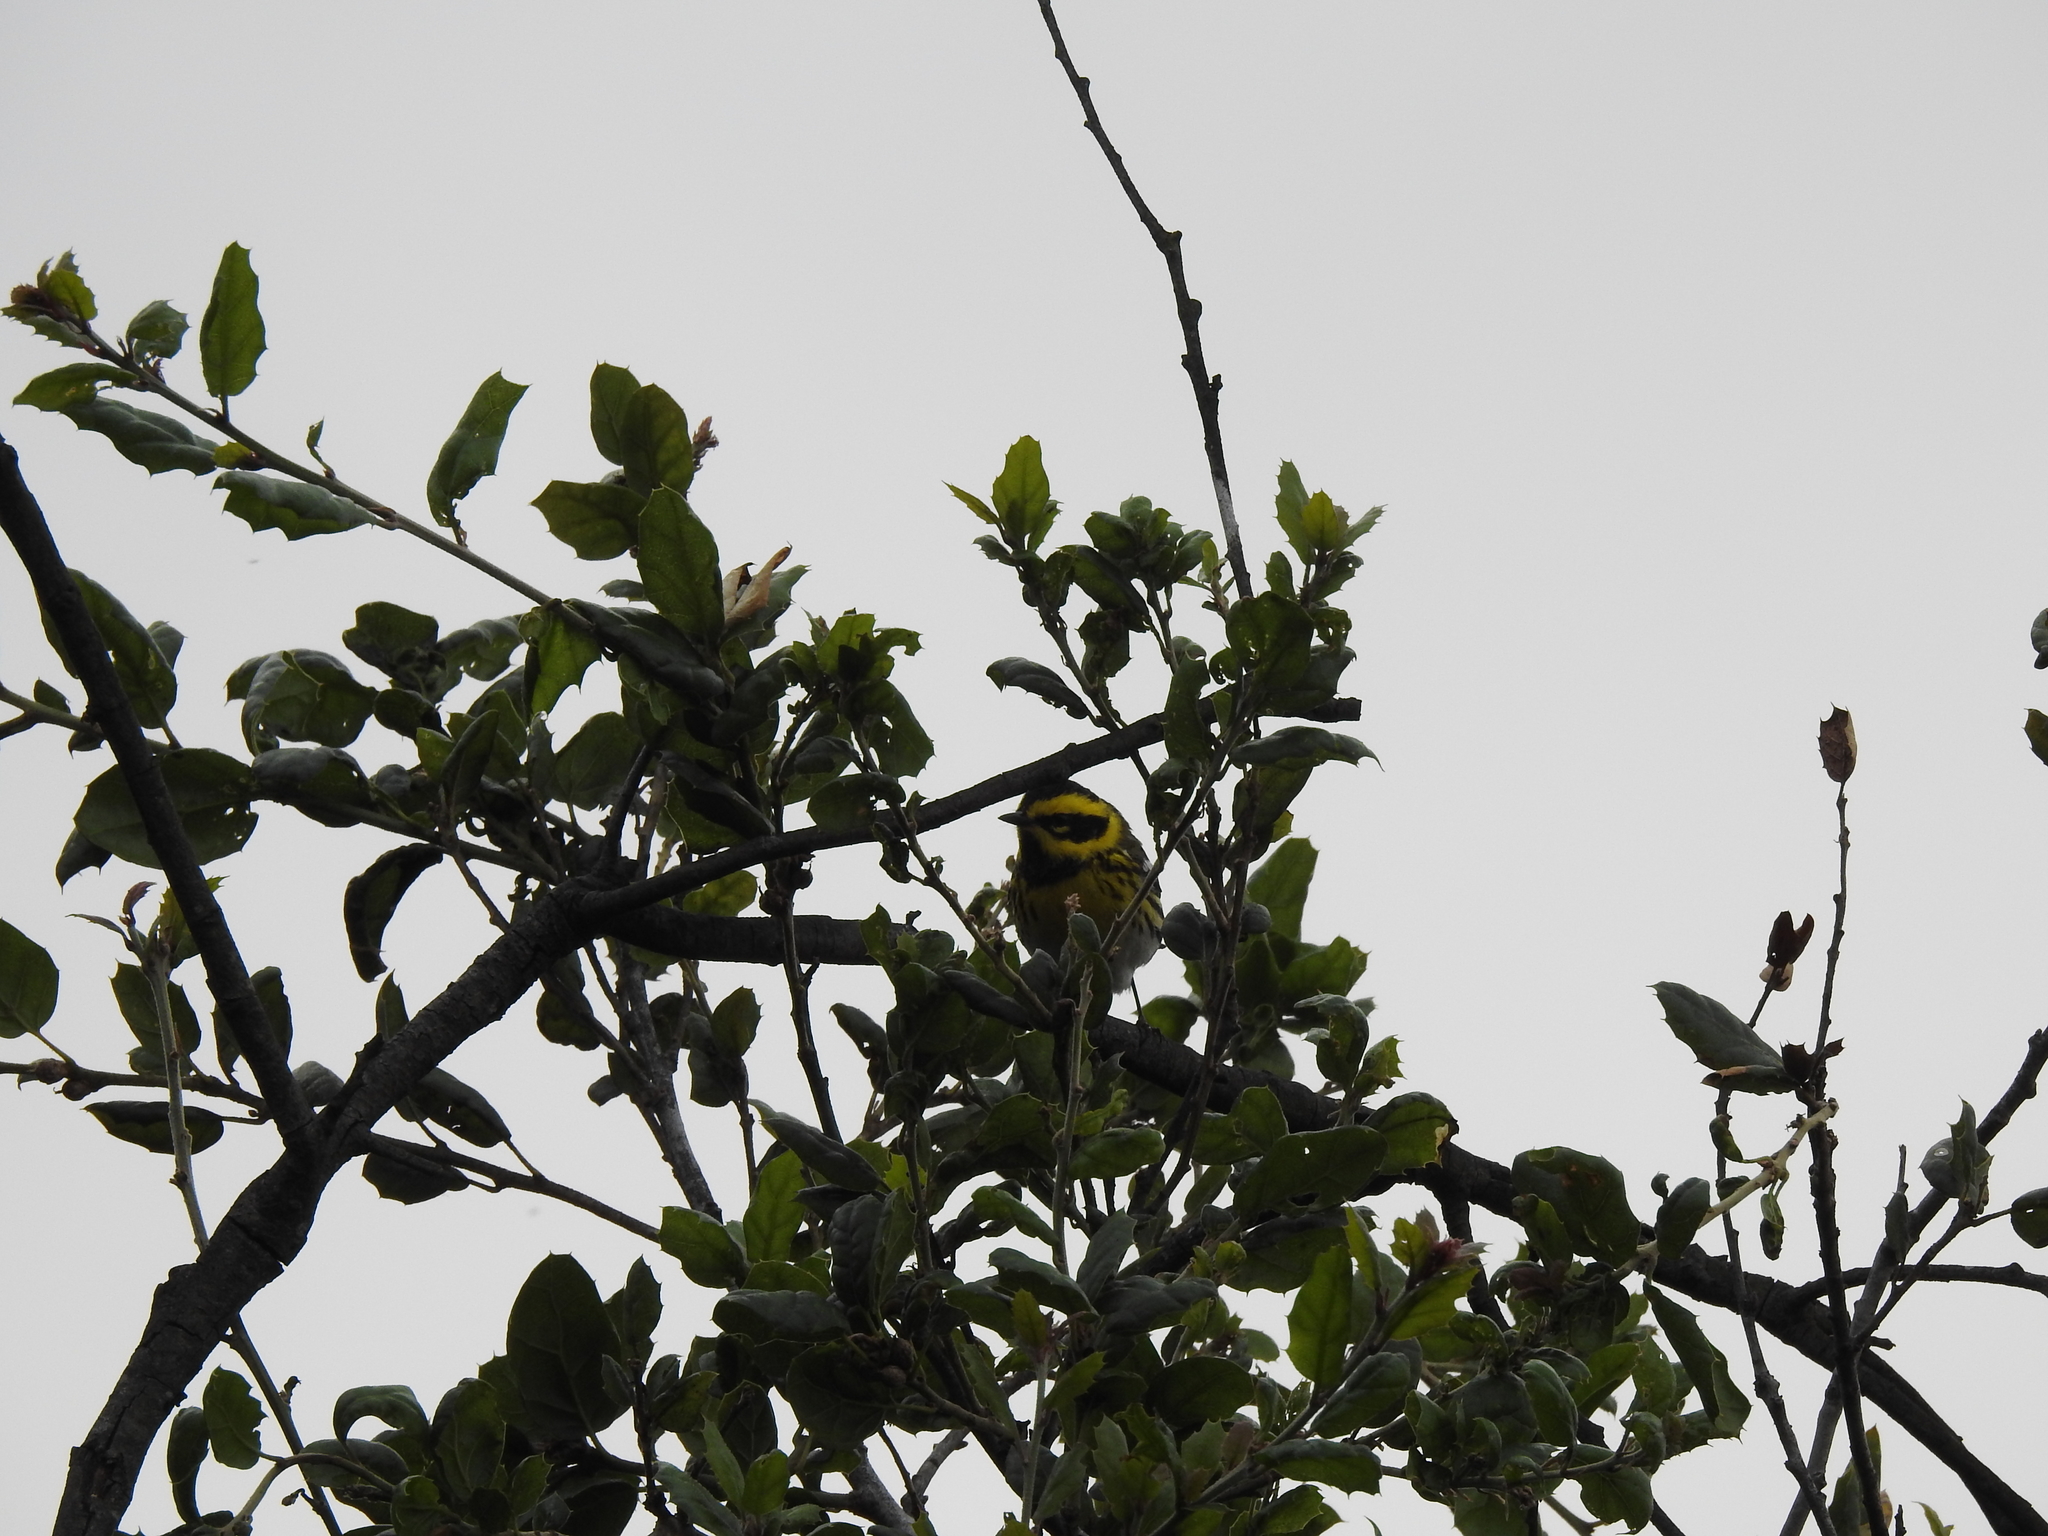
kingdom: Animalia
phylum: Chordata
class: Aves
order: Passeriformes
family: Parulidae
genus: Setophaga
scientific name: Setophaga townsendi
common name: Townsend's warbler
